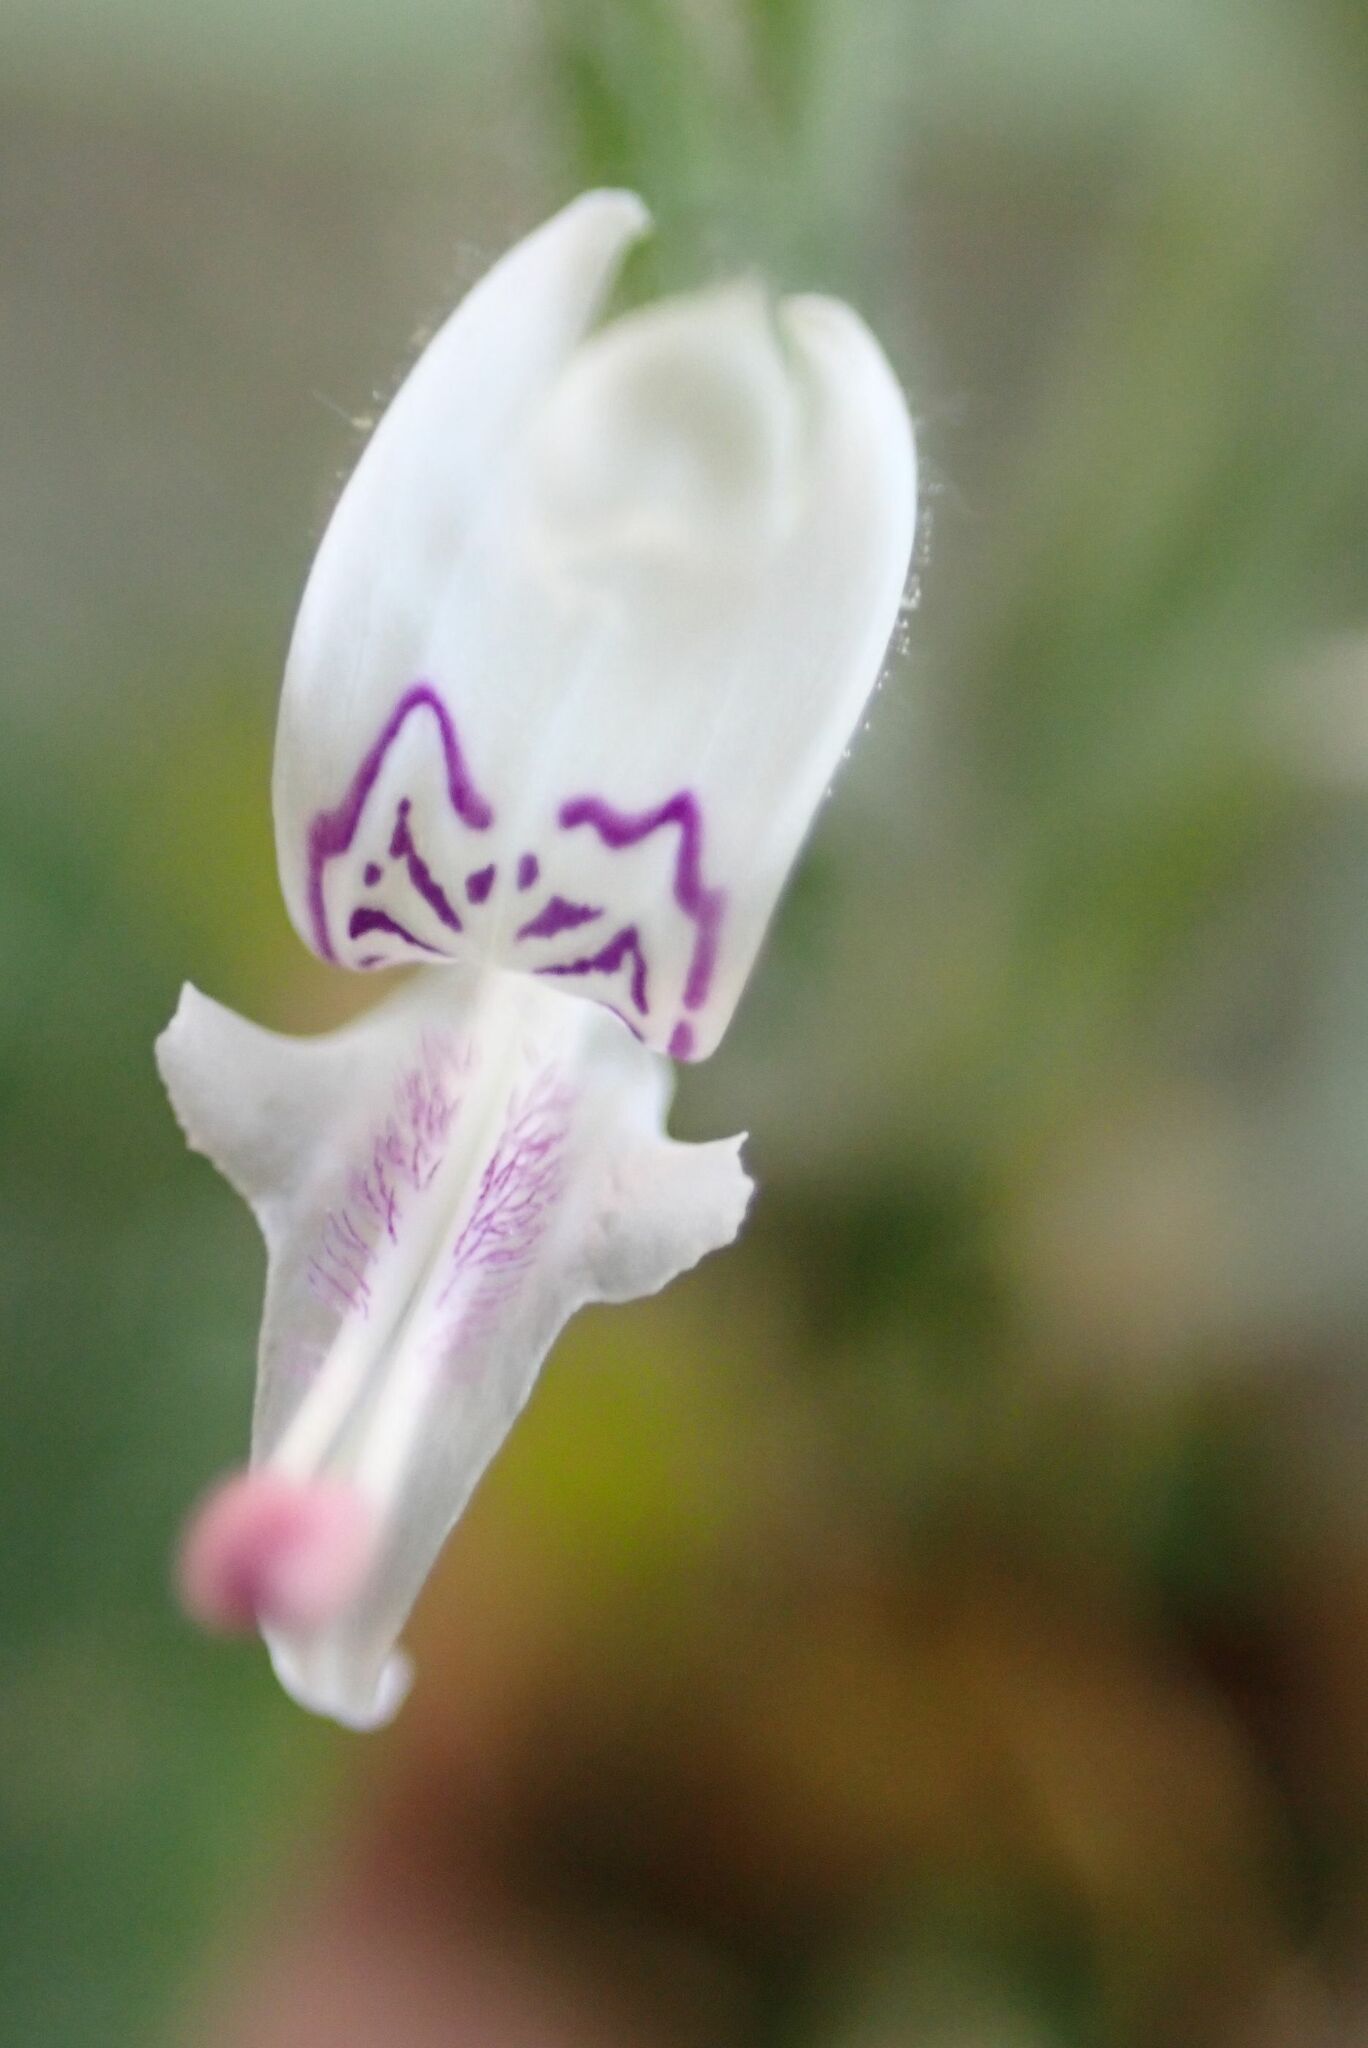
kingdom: Plantae
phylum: Tracheophyta
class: Magnoliopsida
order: Lamiales
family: Acanthaceae
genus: Hypoestes
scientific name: Hypoestes forskaolii
